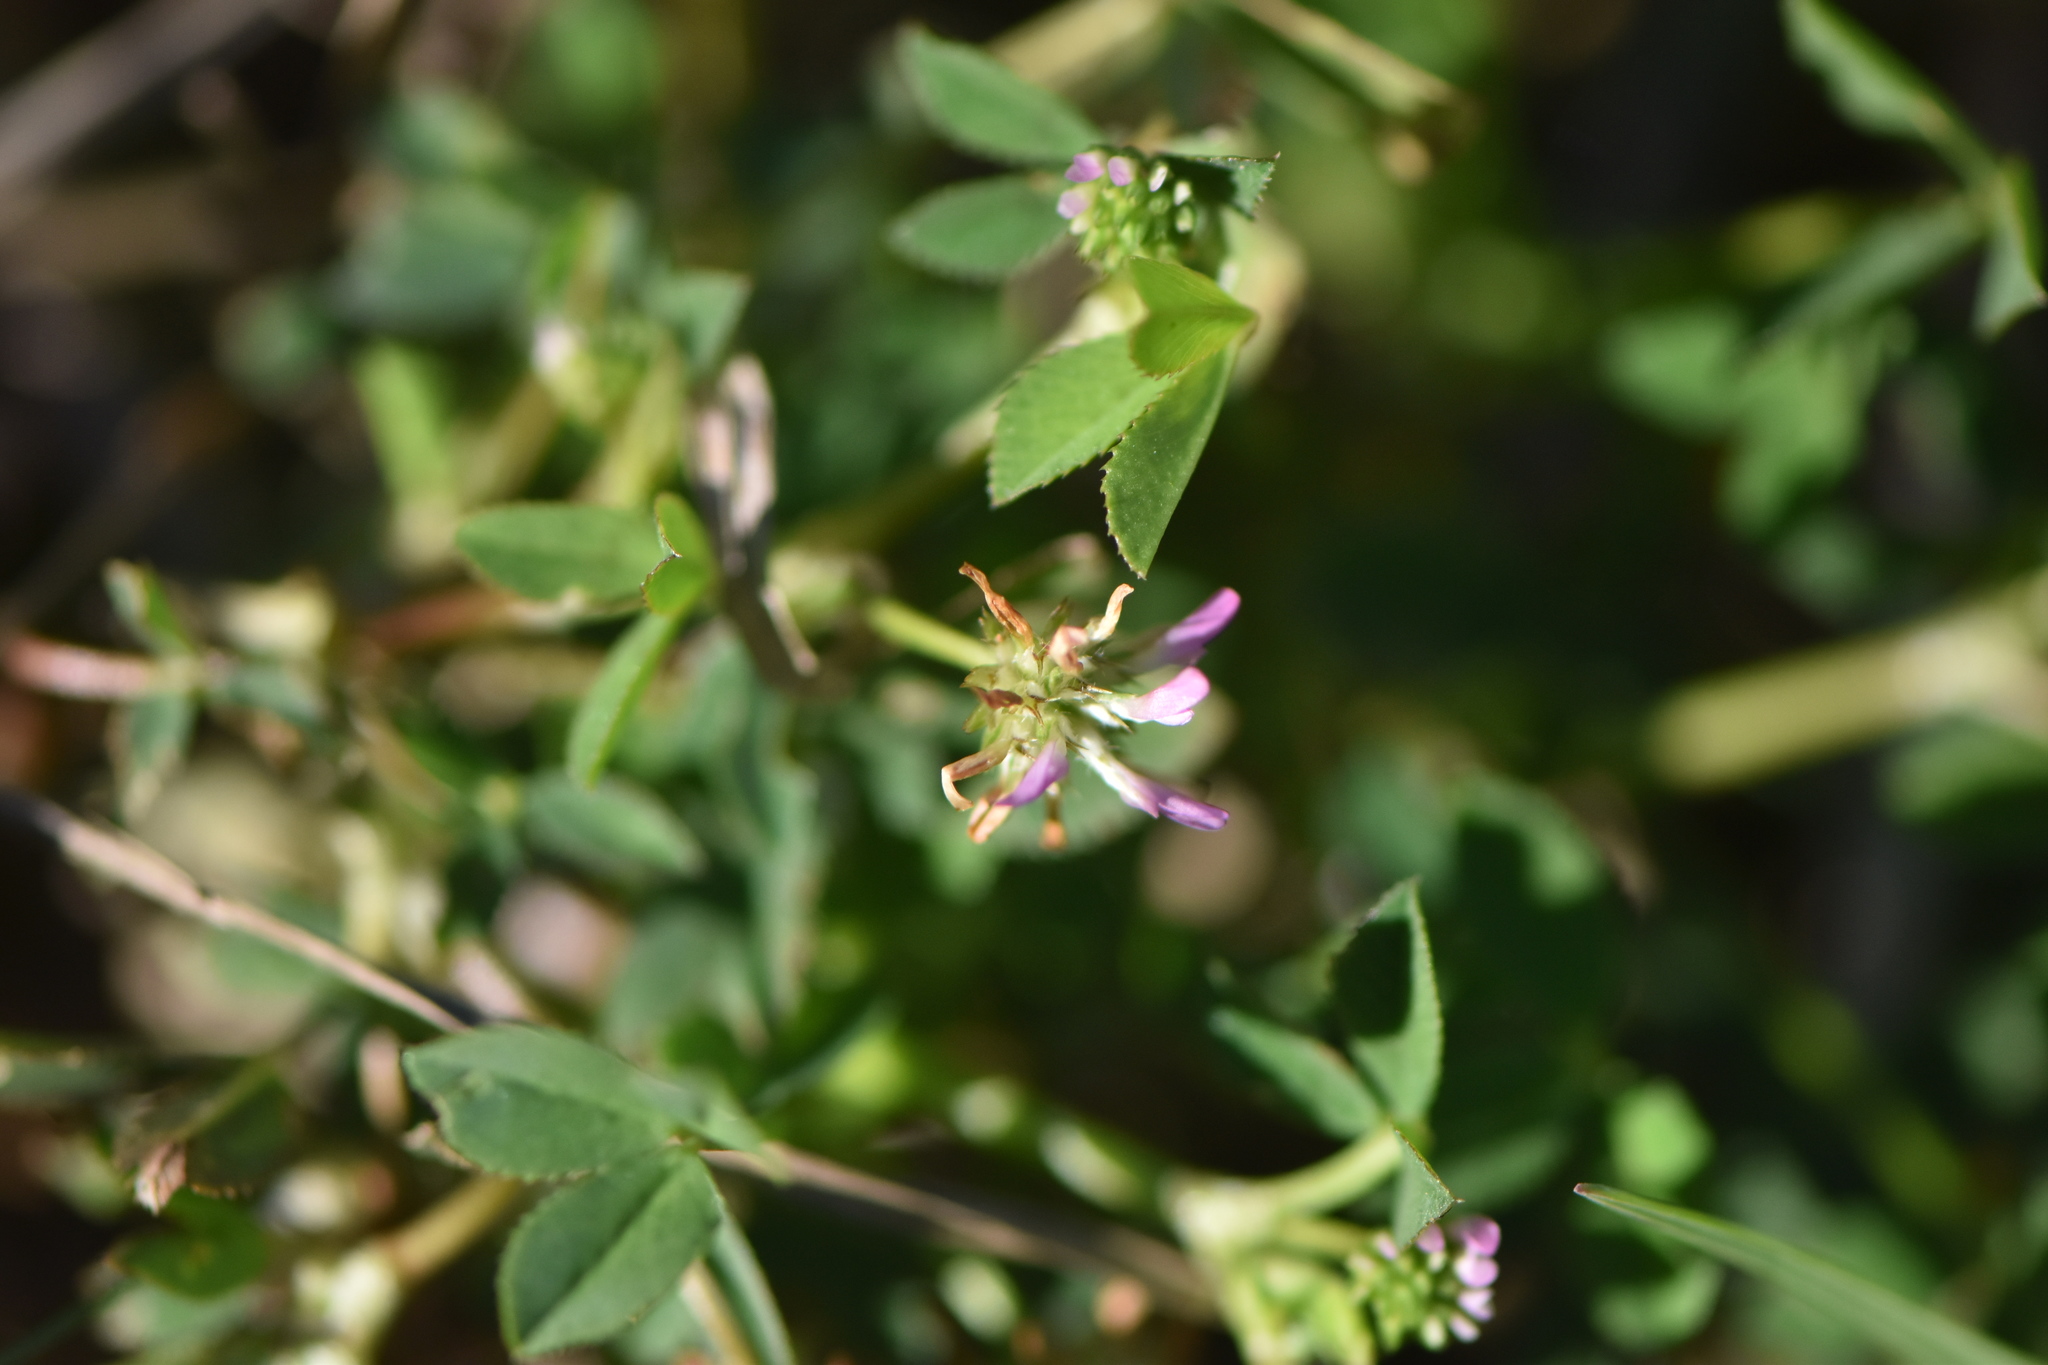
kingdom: Plantae
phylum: Tracheophyta
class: Magnoliopsida
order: Fabales
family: Fabaceae
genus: Trifolium
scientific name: Trifolium resupinatum
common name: Reversed clover
